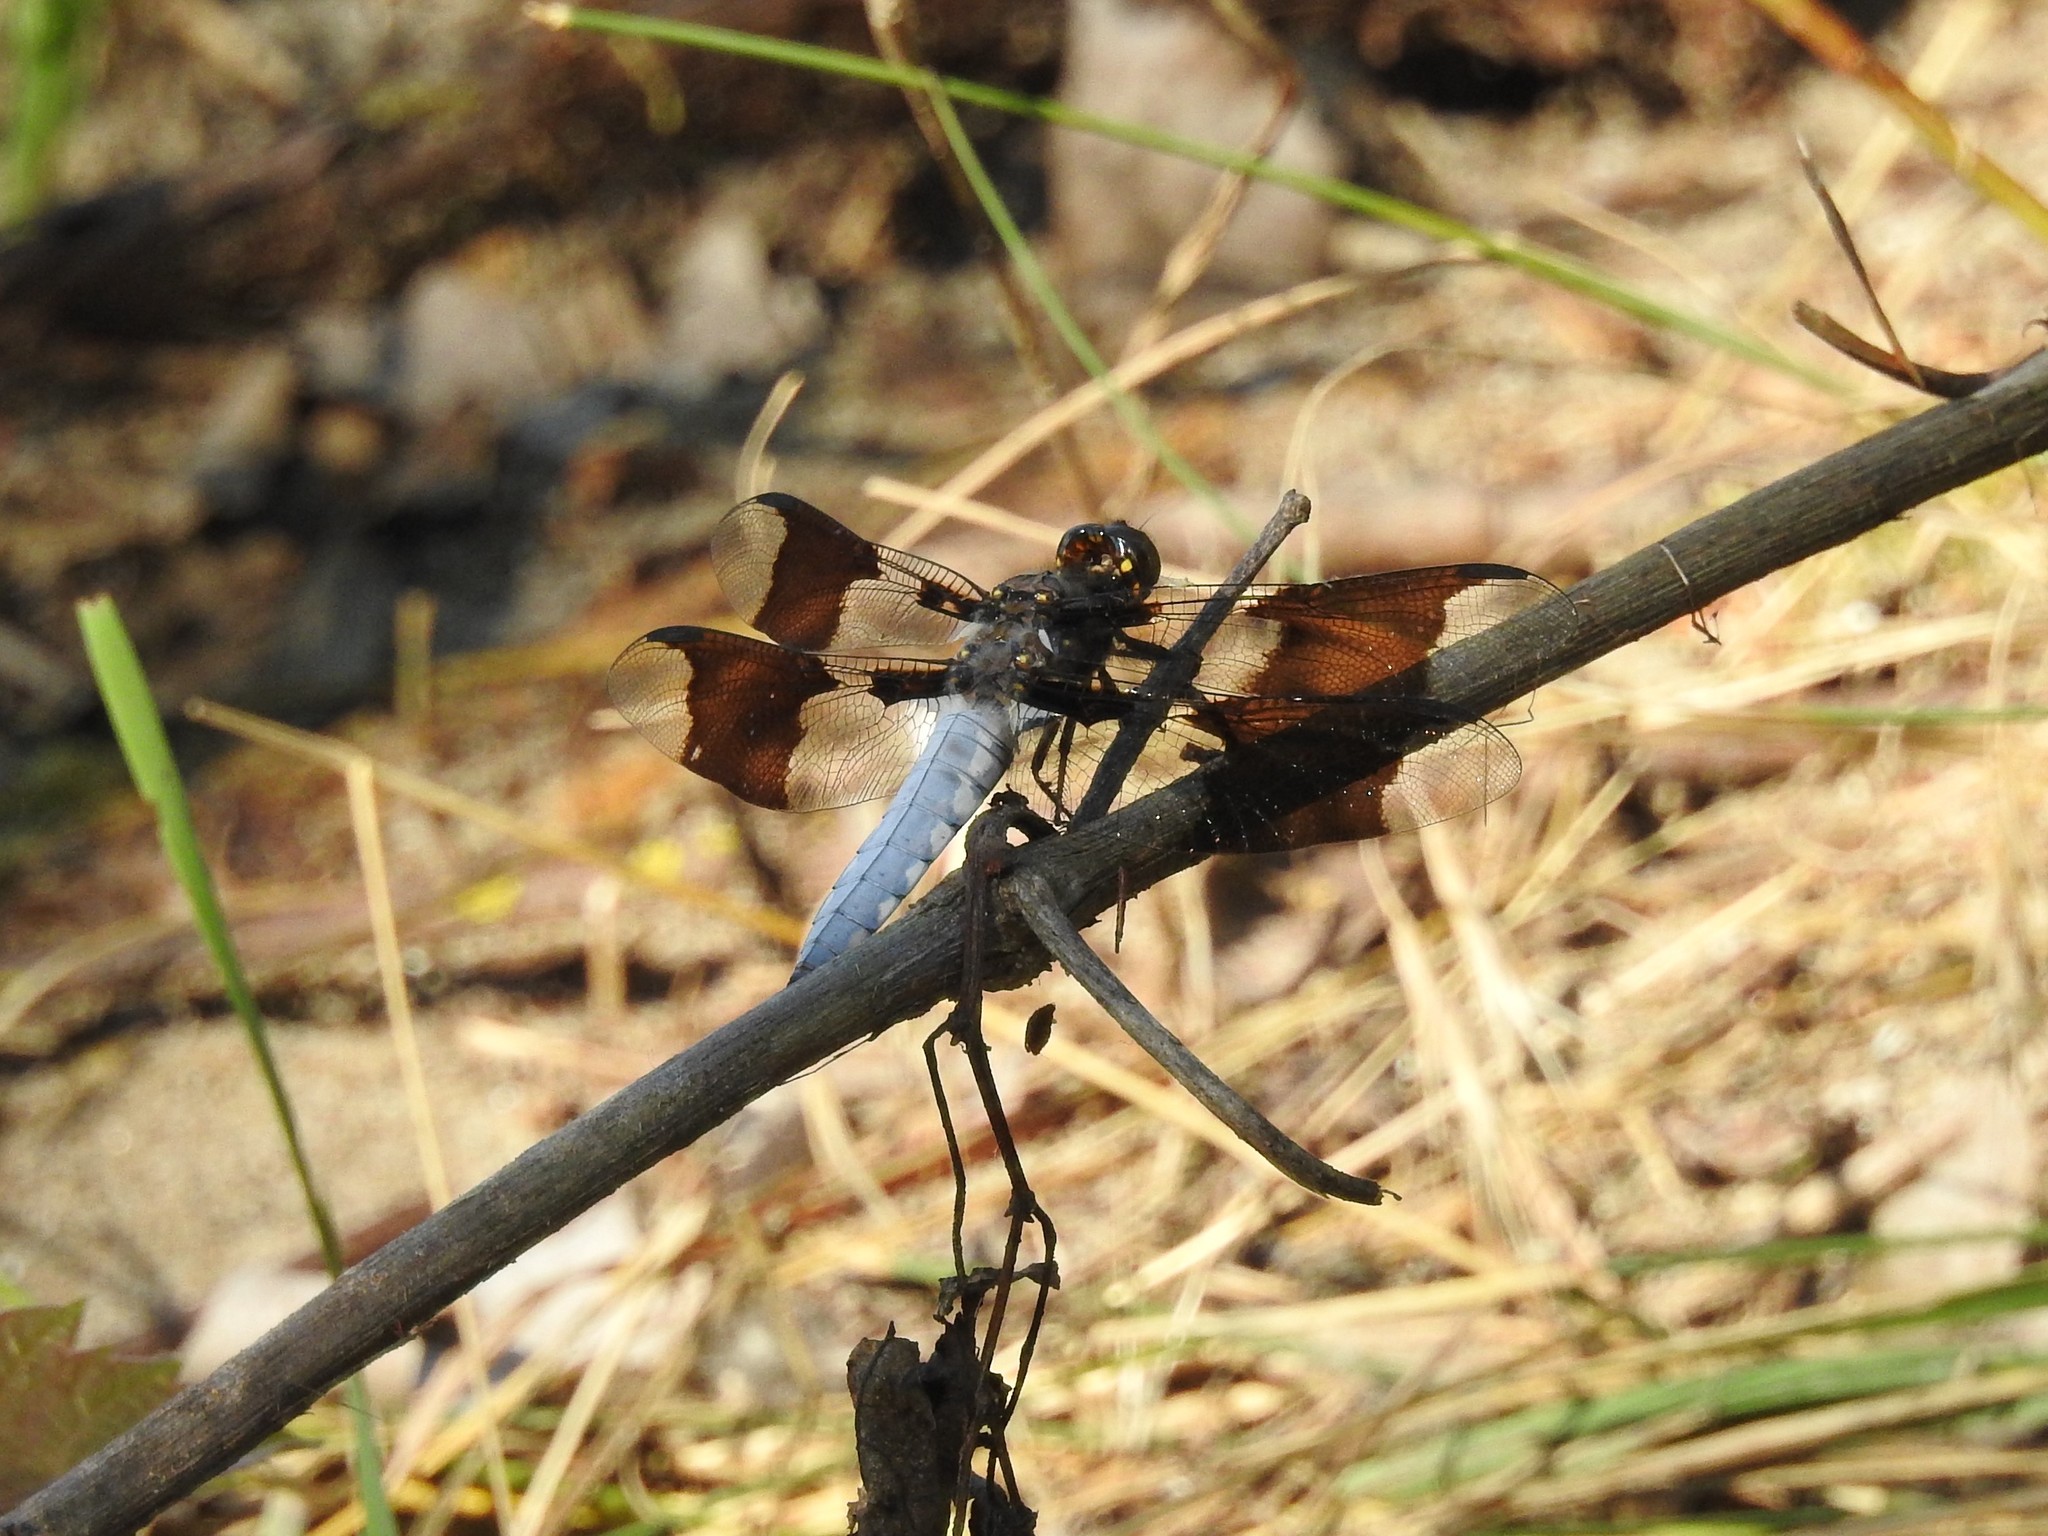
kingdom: Animalia
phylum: Arthropoda
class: Insecta
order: Odonata
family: Libellulidae
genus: Plathemis
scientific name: Plathemis lydia
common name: Common whitetail
